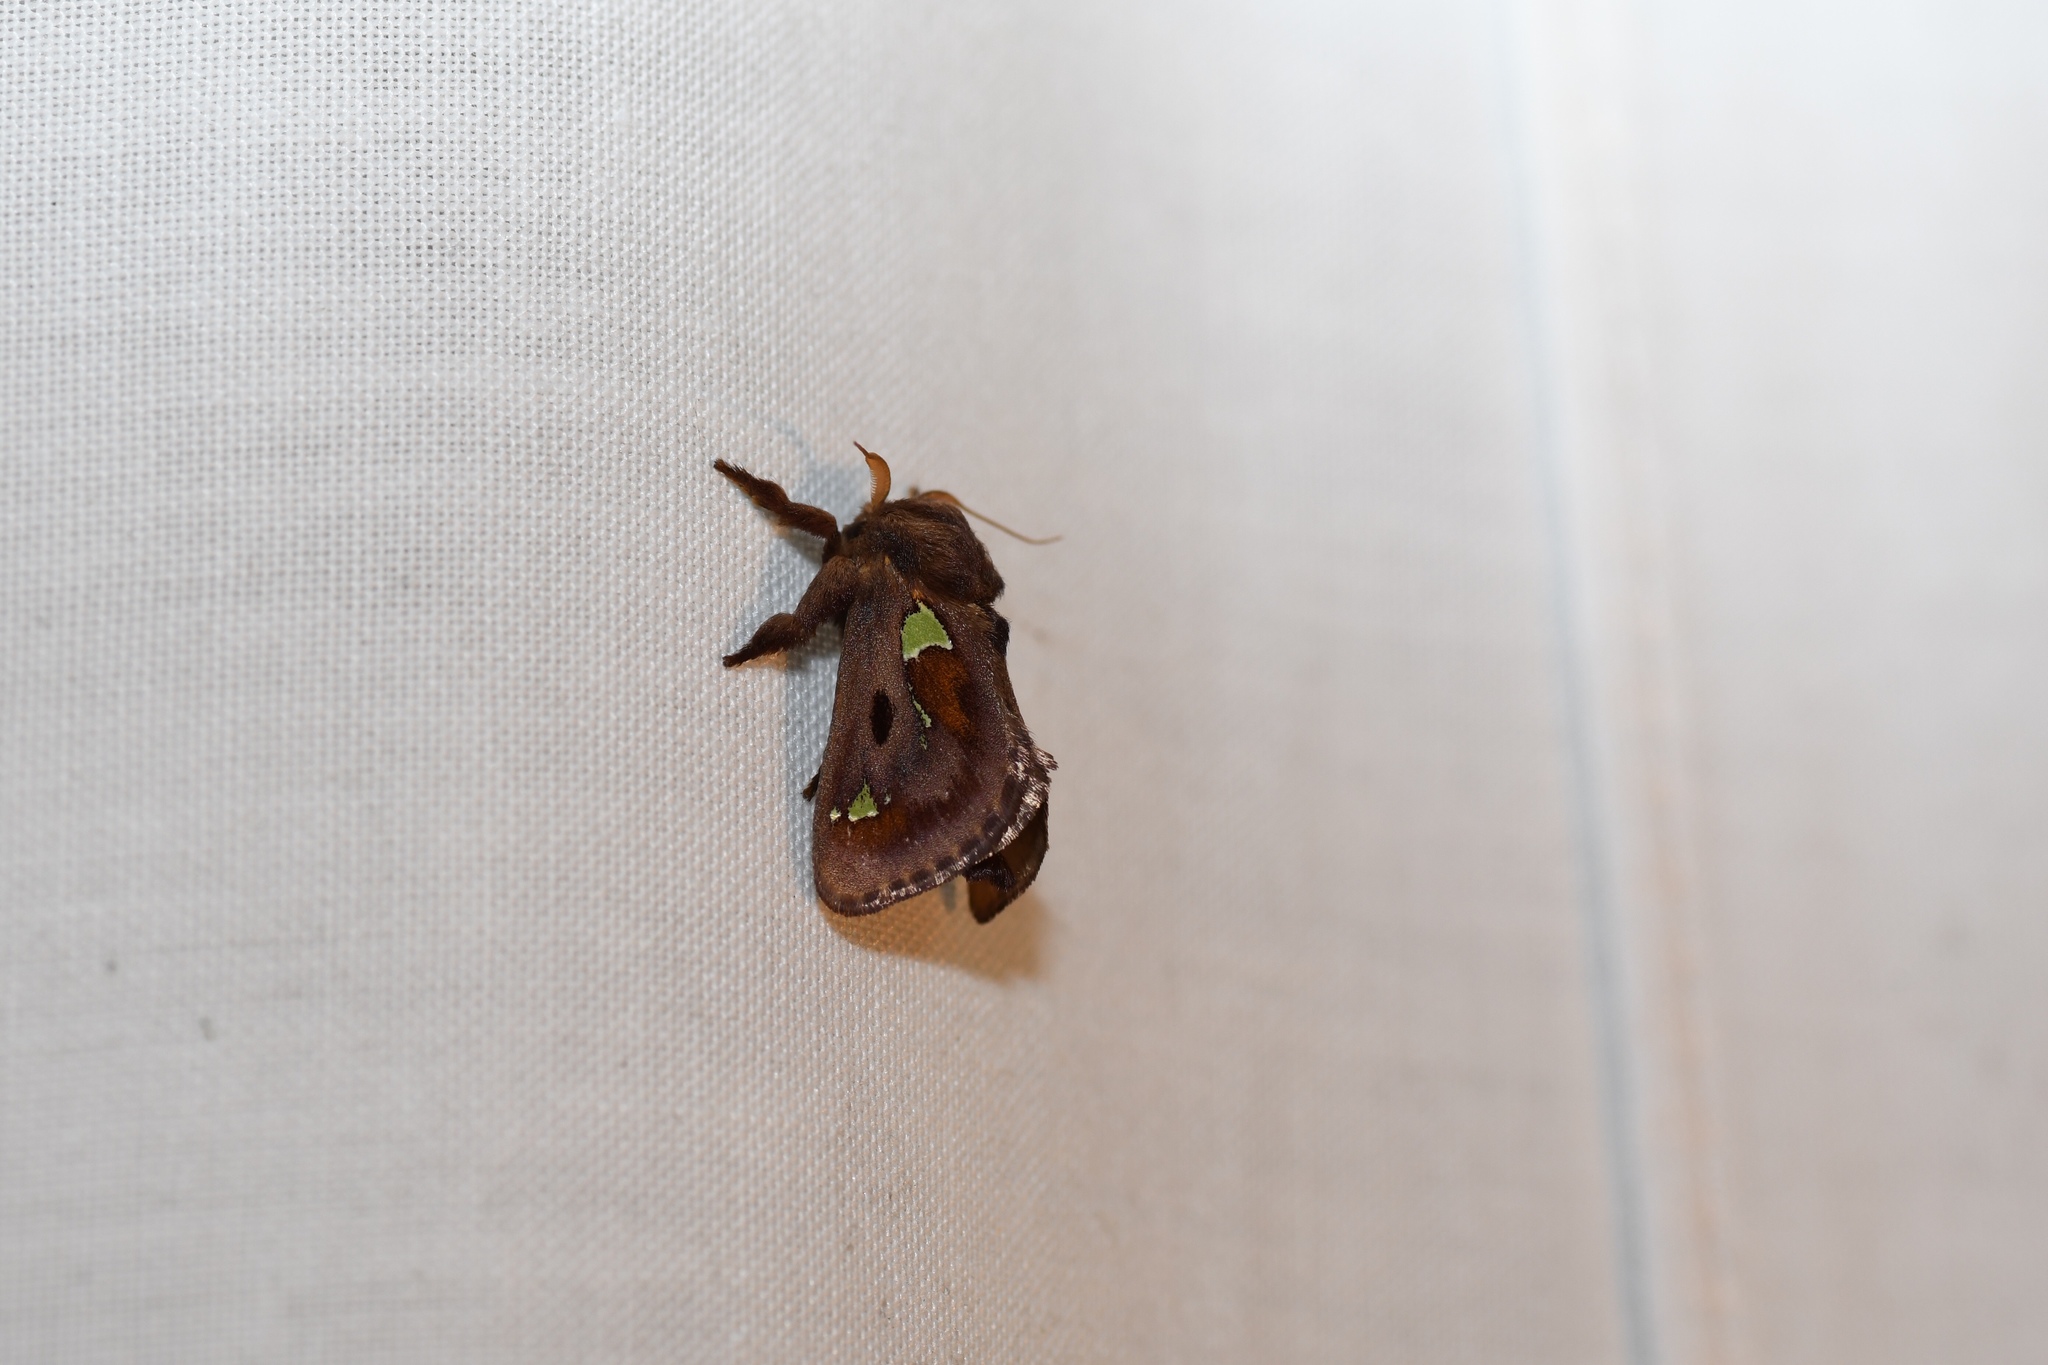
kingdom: Animalia
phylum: Arthropoda
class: Insecta
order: Lepidoptera
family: Limacodidae
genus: Euclea
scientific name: Euclea delphinii
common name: Spiny oak-slug moth
